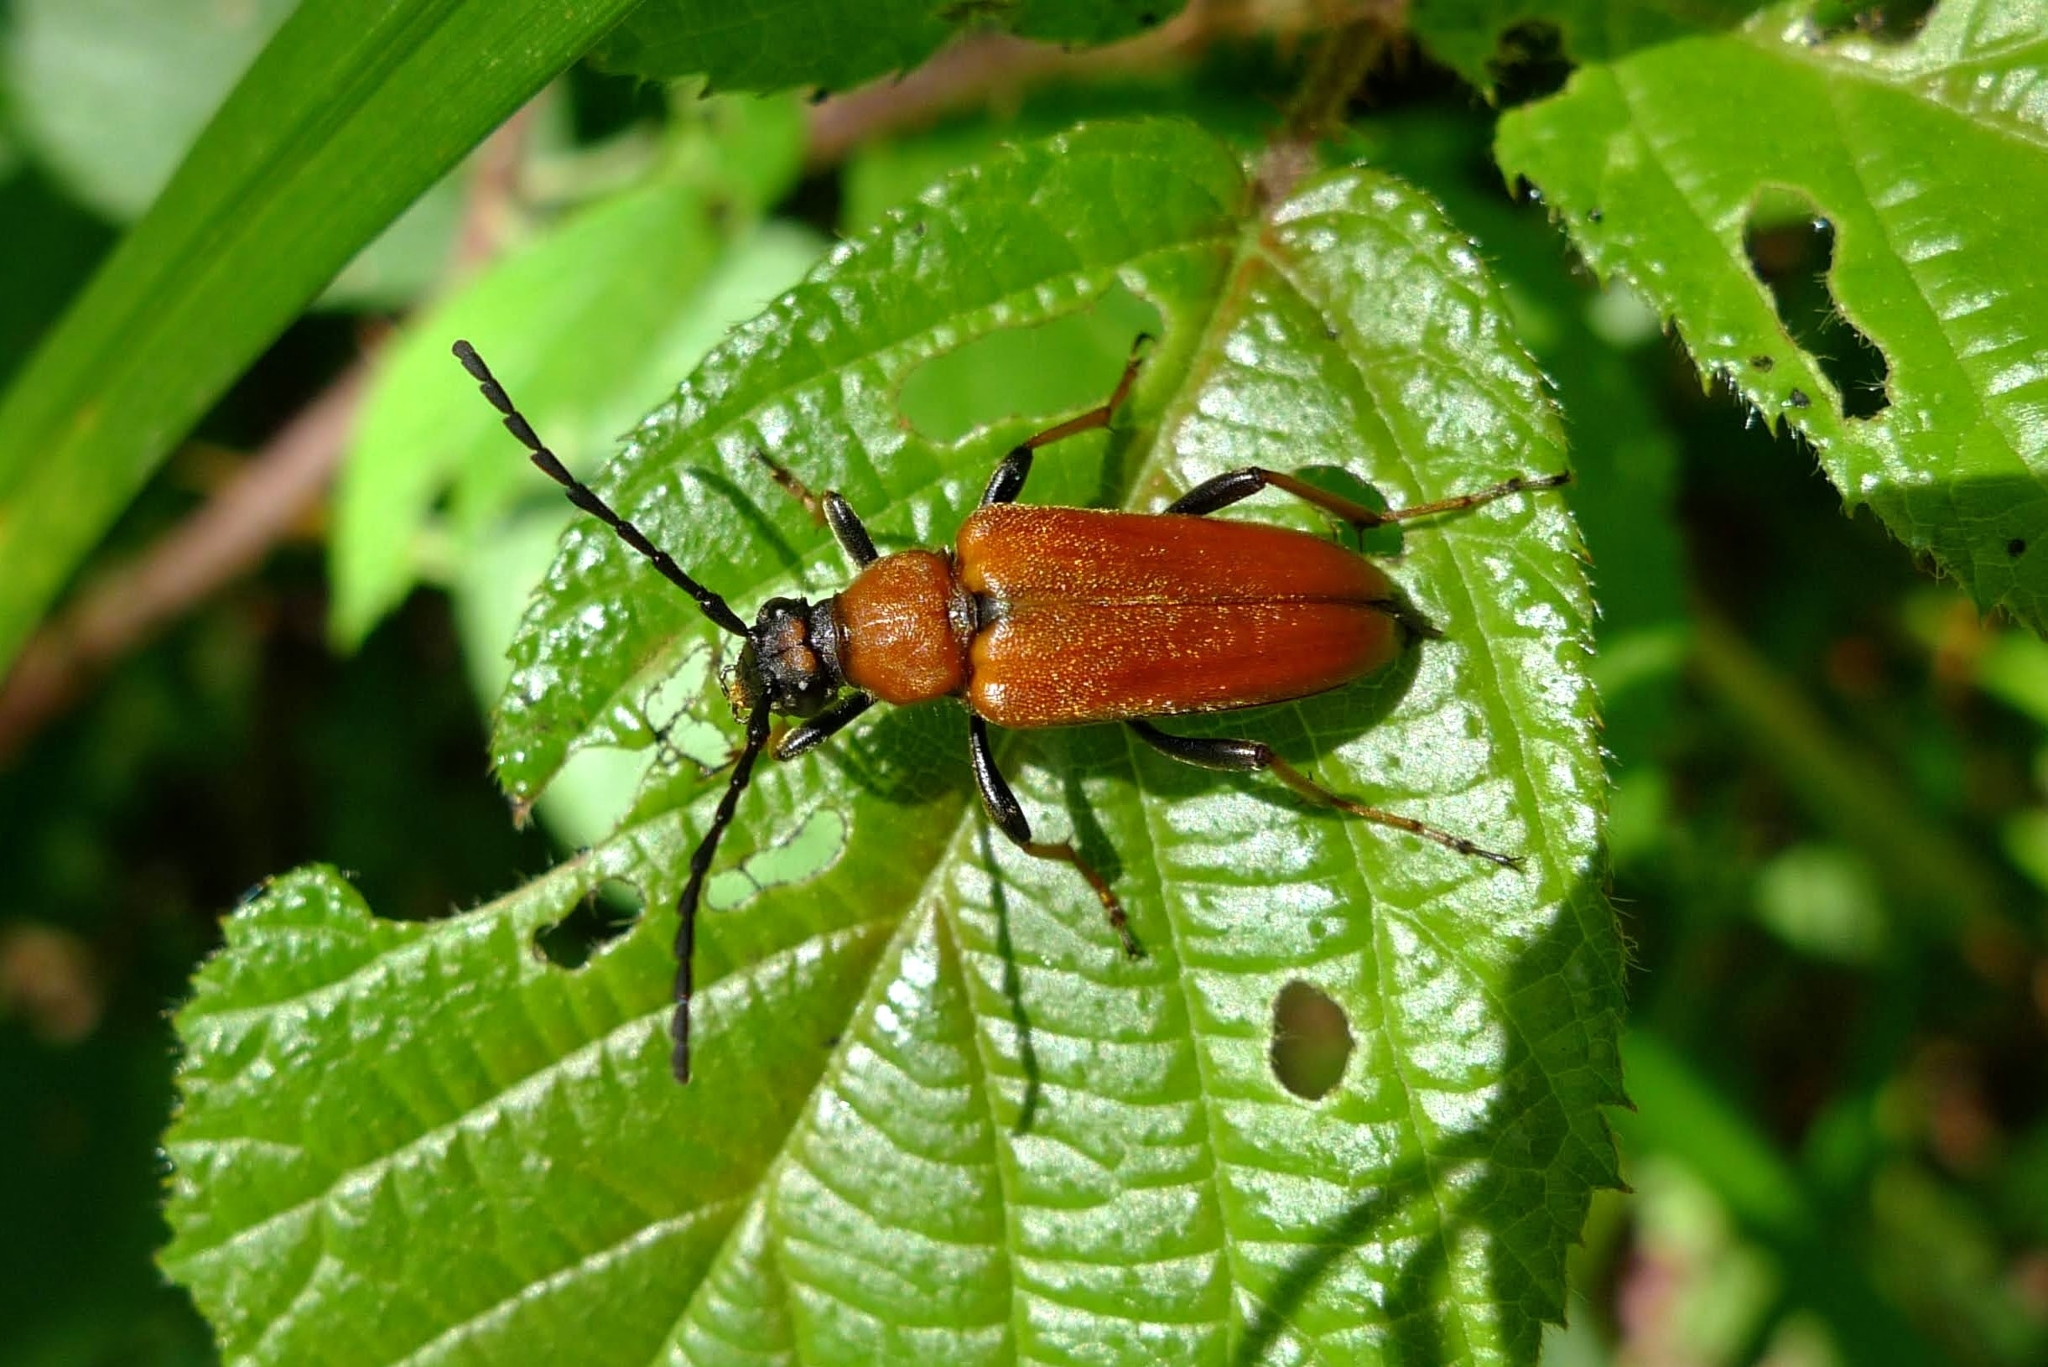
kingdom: Animalia
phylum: Arthropoda
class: Insecta
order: Coleoptera
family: Cerambycidae
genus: Stictoleptura
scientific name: Stictoleptura rubra
